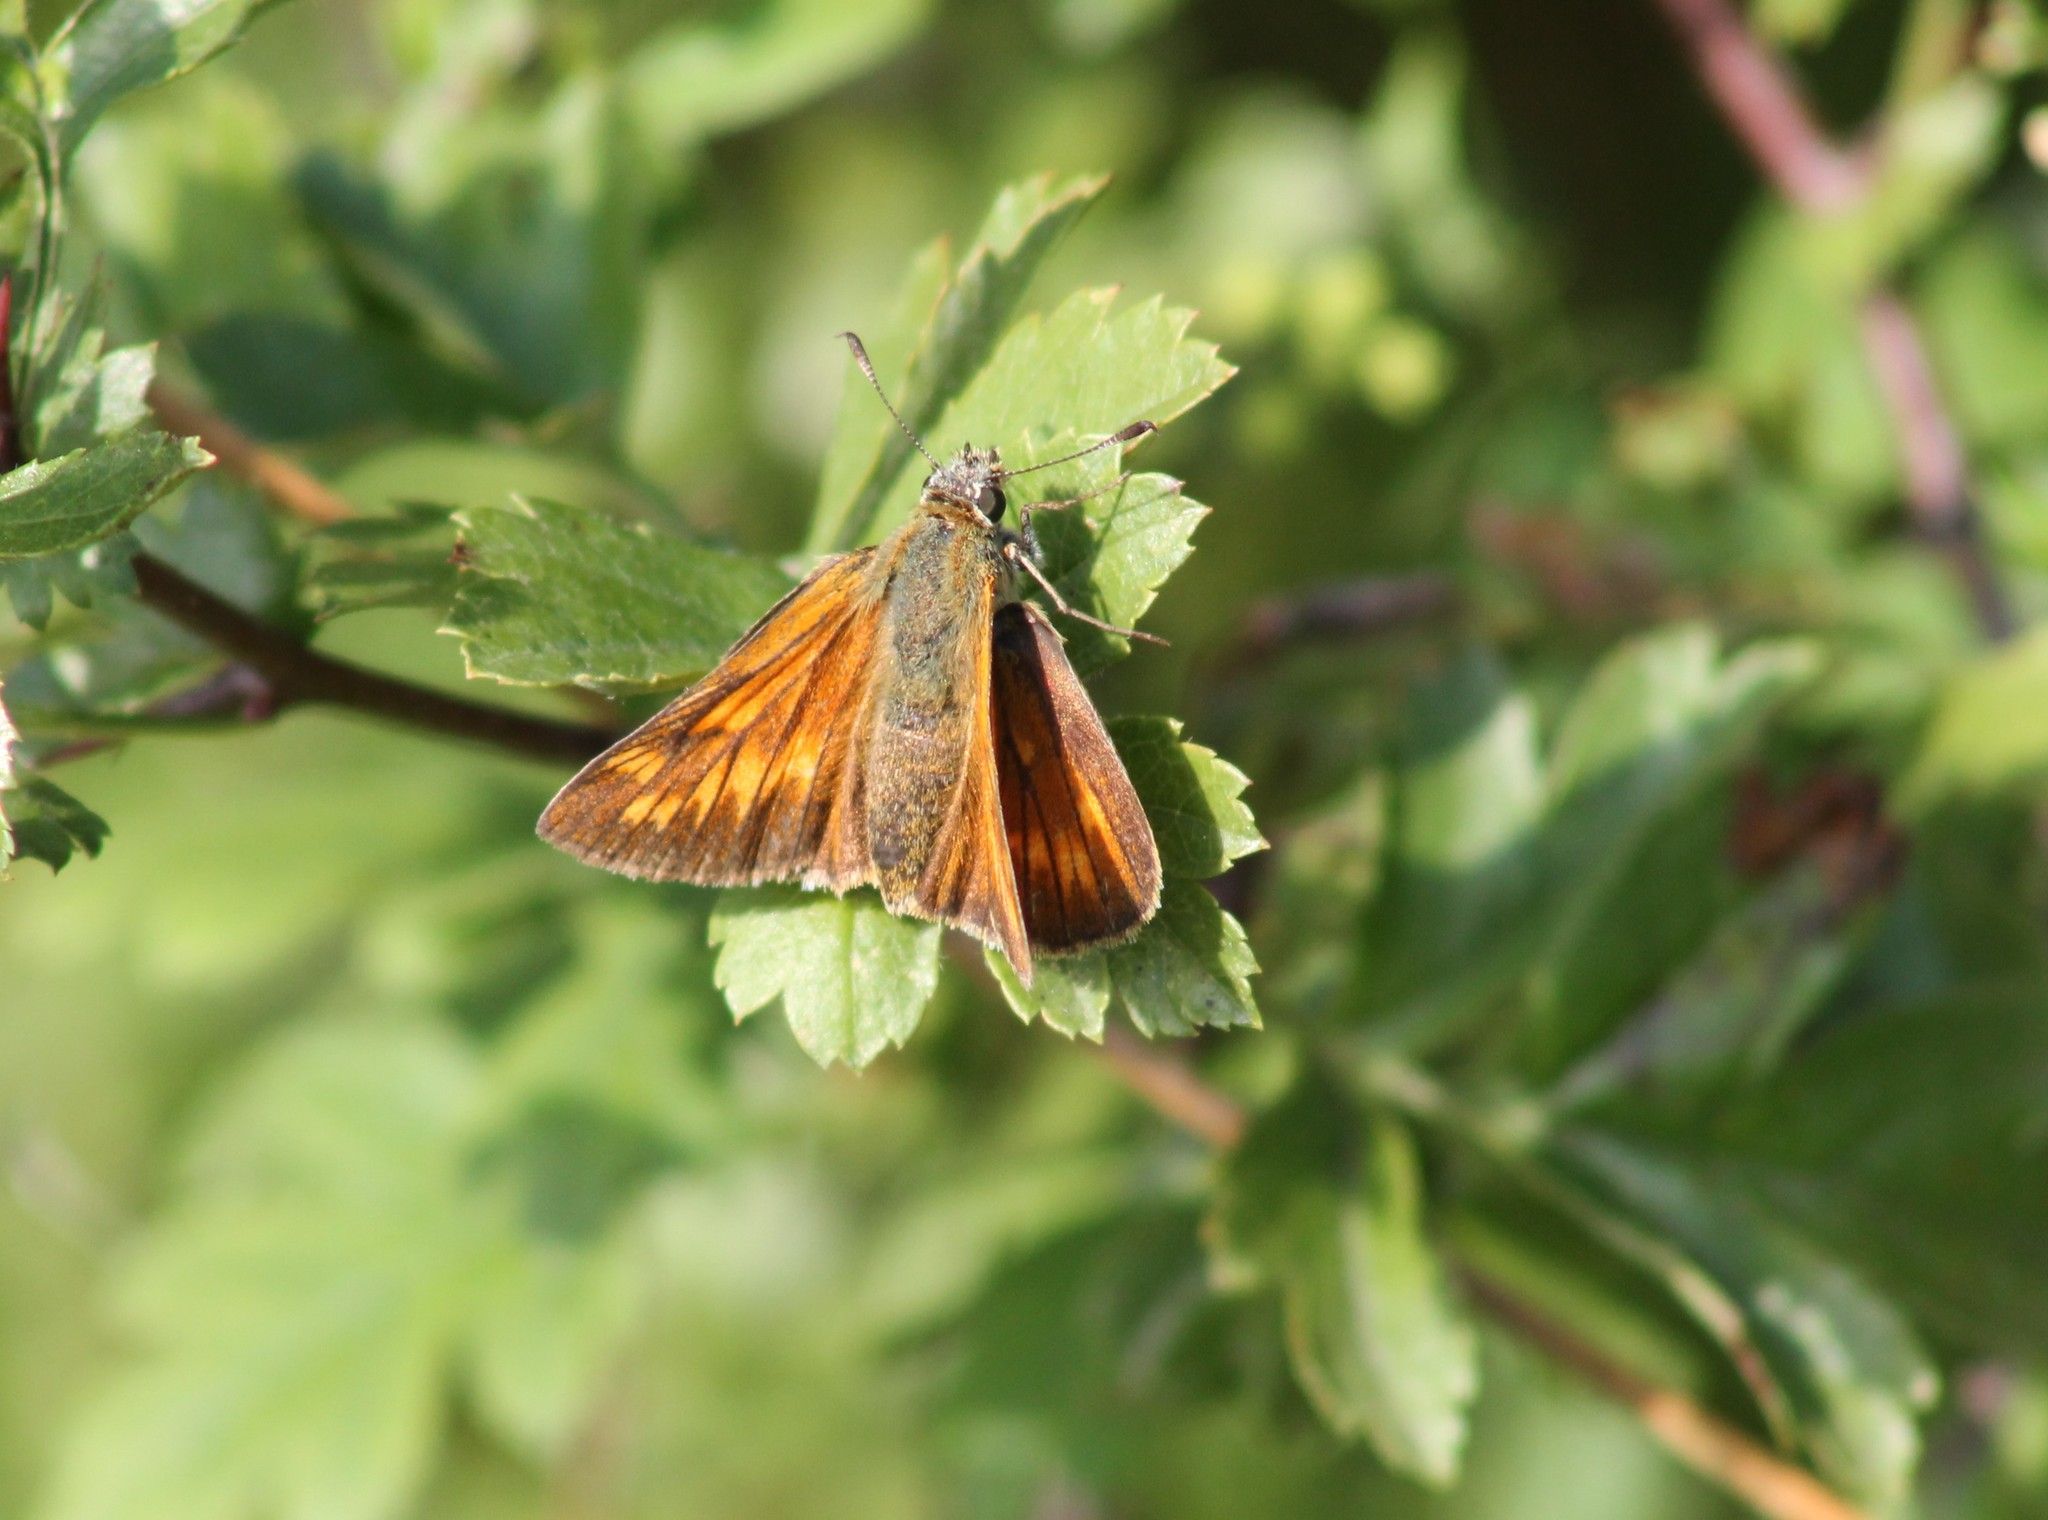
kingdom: Animalia
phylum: Arthropoda
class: Insecta
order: Lepidoptera
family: Hesperiidae
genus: Ochlodes
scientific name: Ochlodes venata
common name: Large skipper
